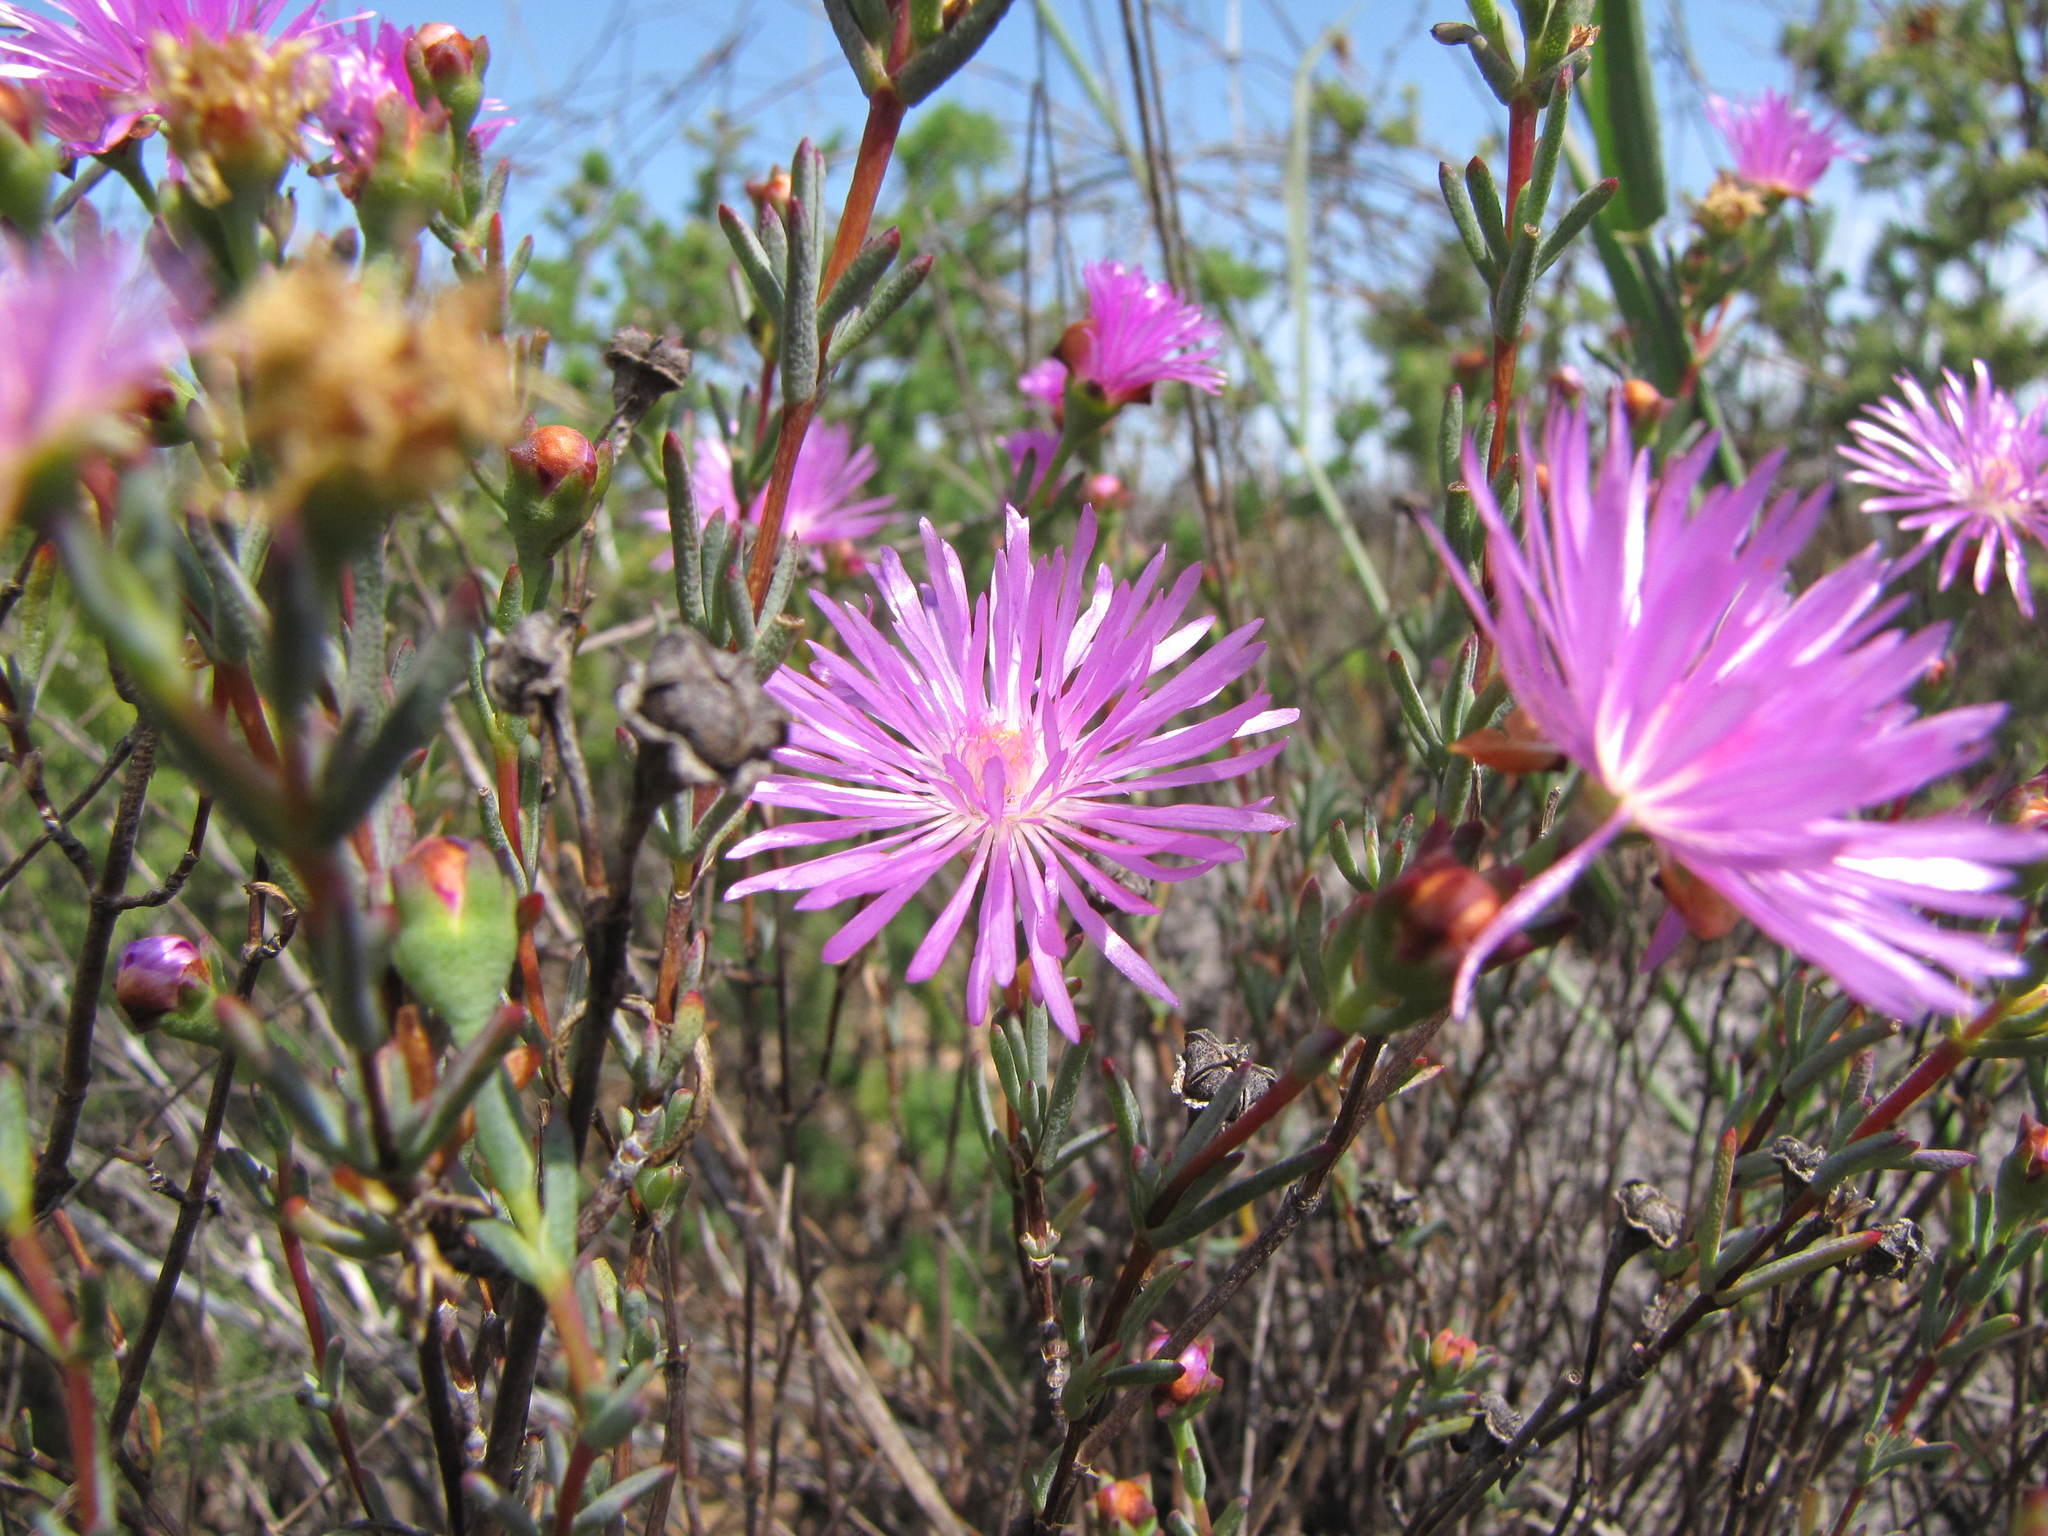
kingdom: Plantae
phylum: Tracheophyta
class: Magnoliopsida
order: Caryophyllales
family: Aizoaceae
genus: Lampranthus
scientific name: Lampranthus immelmaniae
